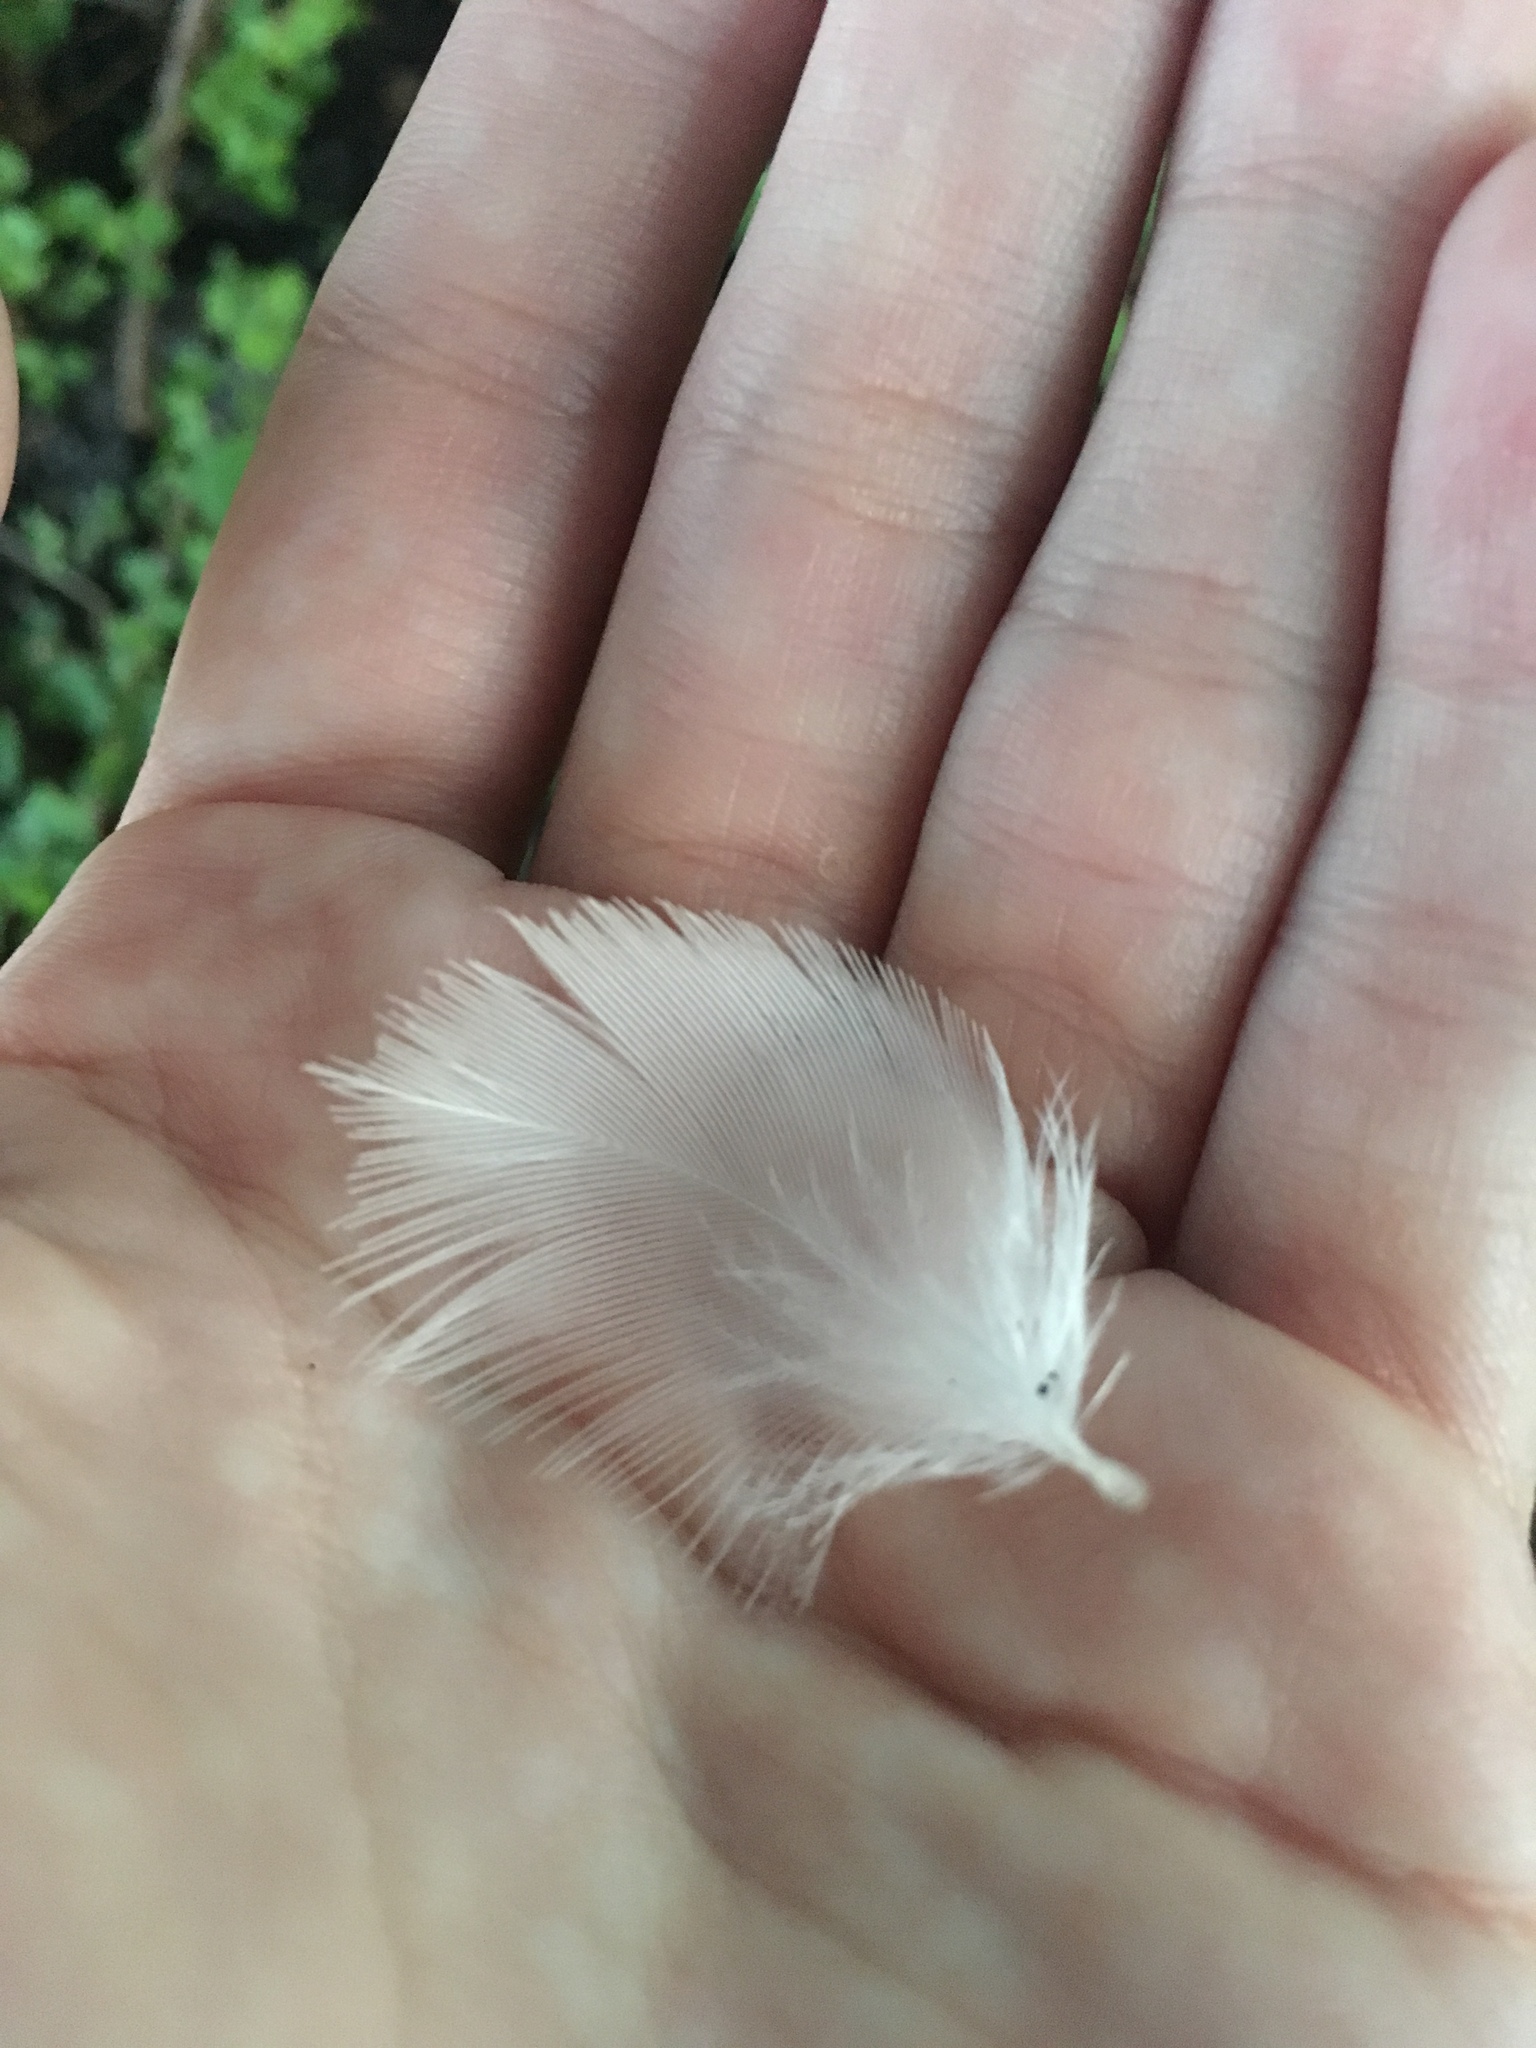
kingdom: Animalia
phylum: Chordata
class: Aves
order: Anseriformes
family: Anatidae
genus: Cairina
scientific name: Cairina moschata
